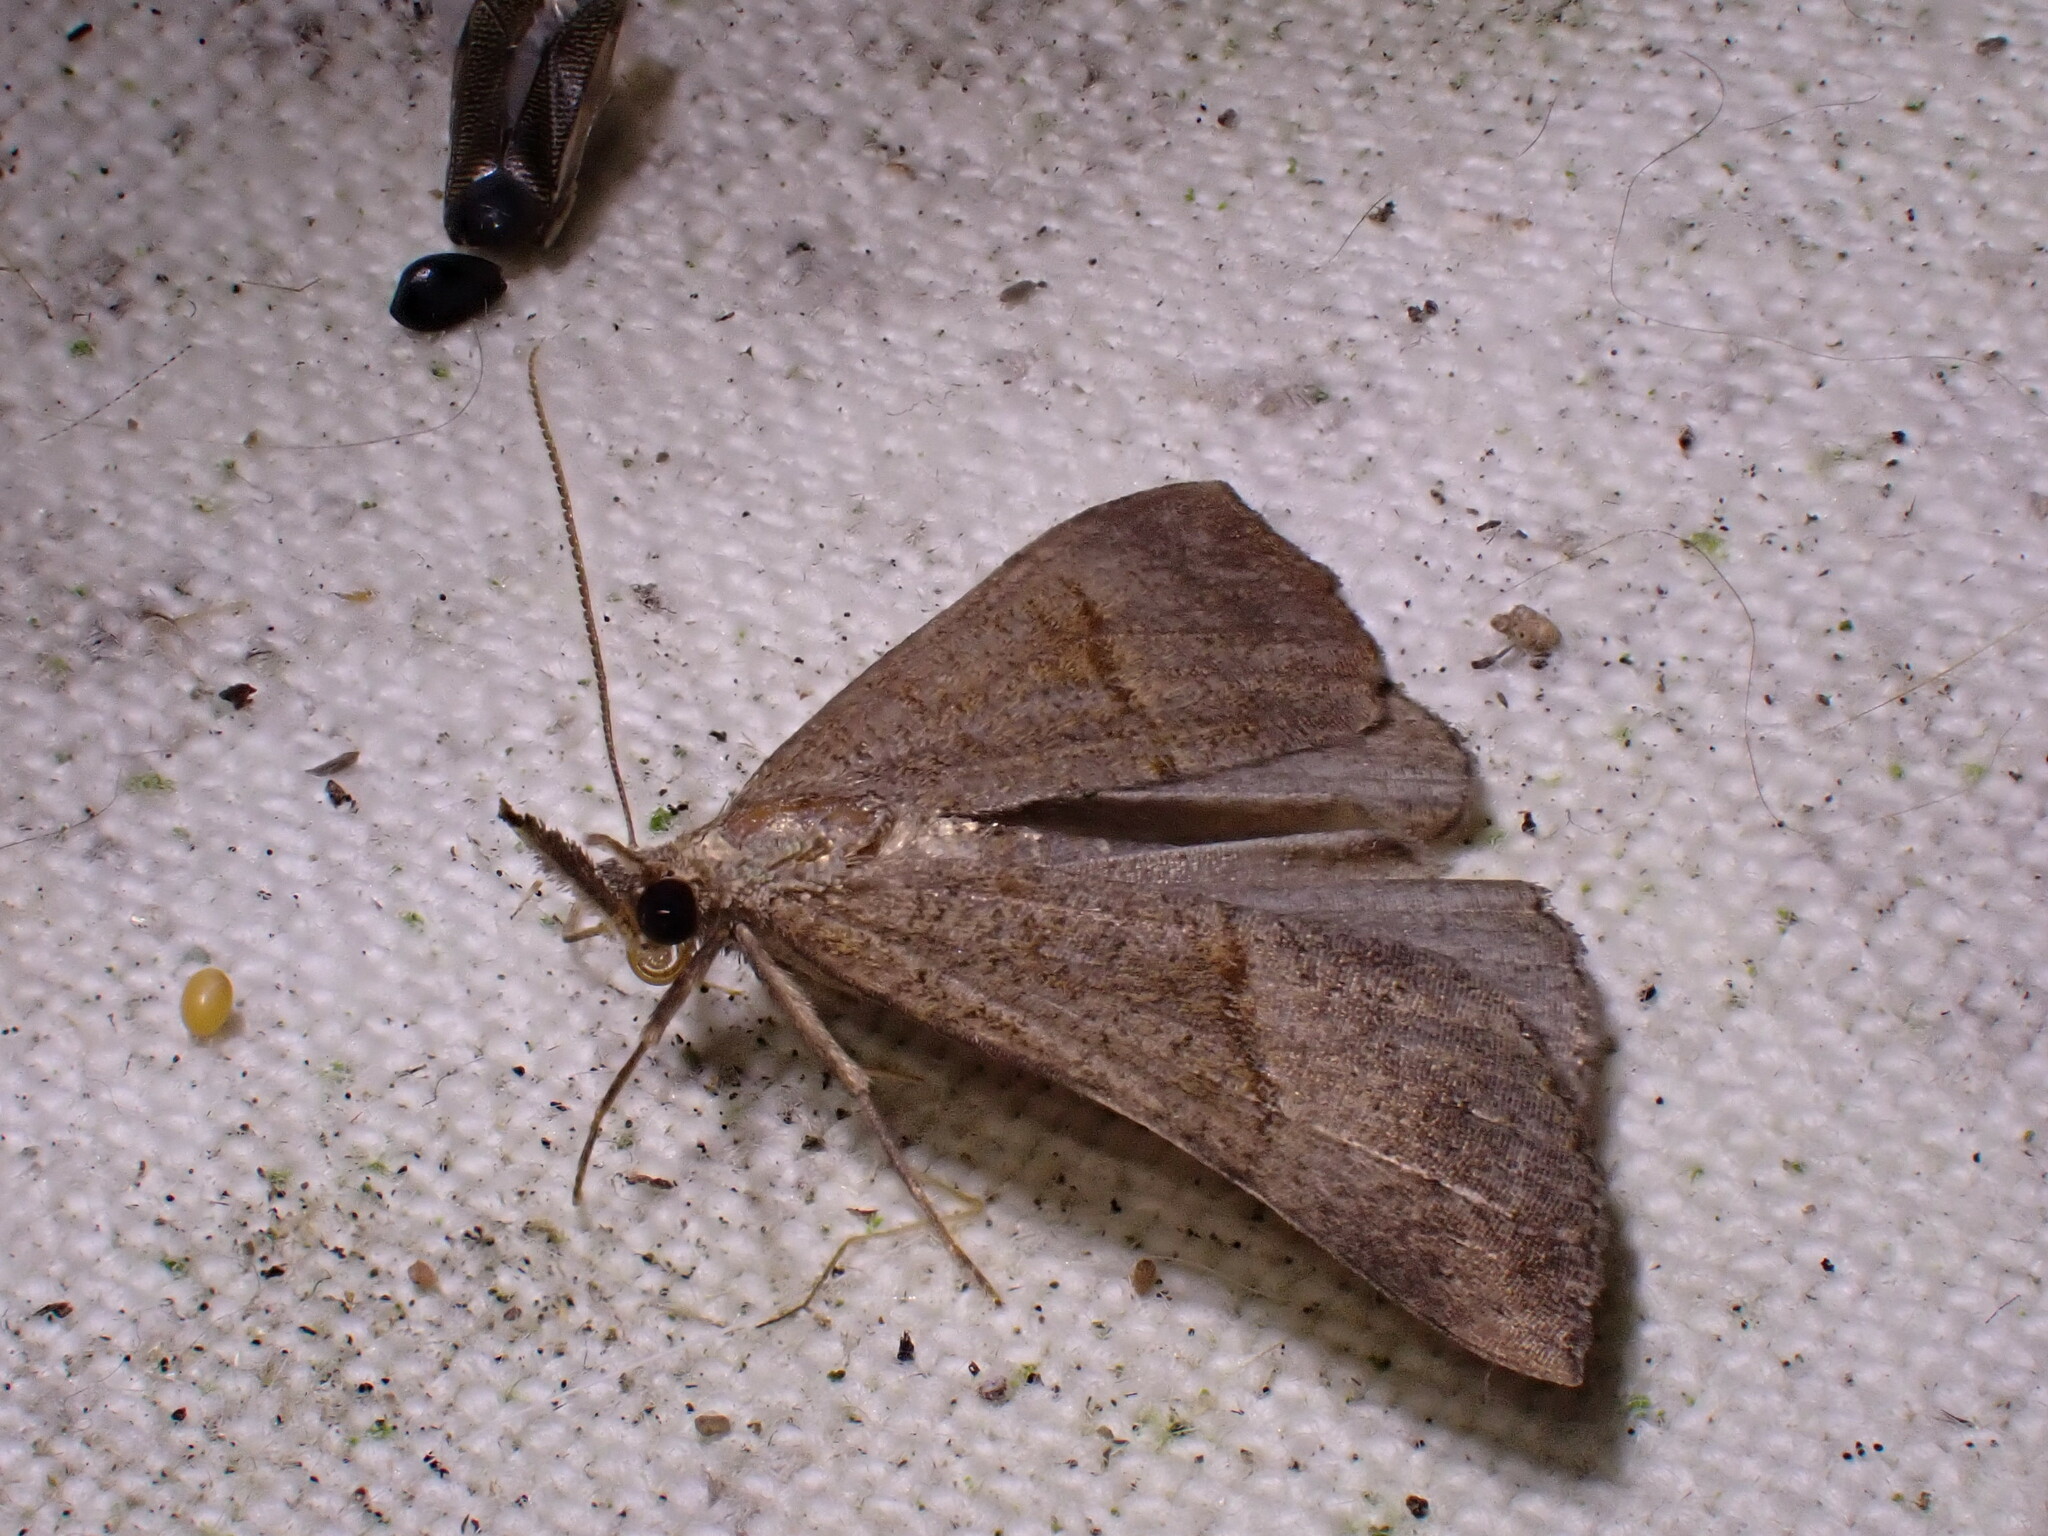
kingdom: Animalia
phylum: Arthropoda
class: Insecta
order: Lepidoptera
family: Erebidae
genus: Hypena
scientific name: Hypena proboscidalis
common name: Snout
